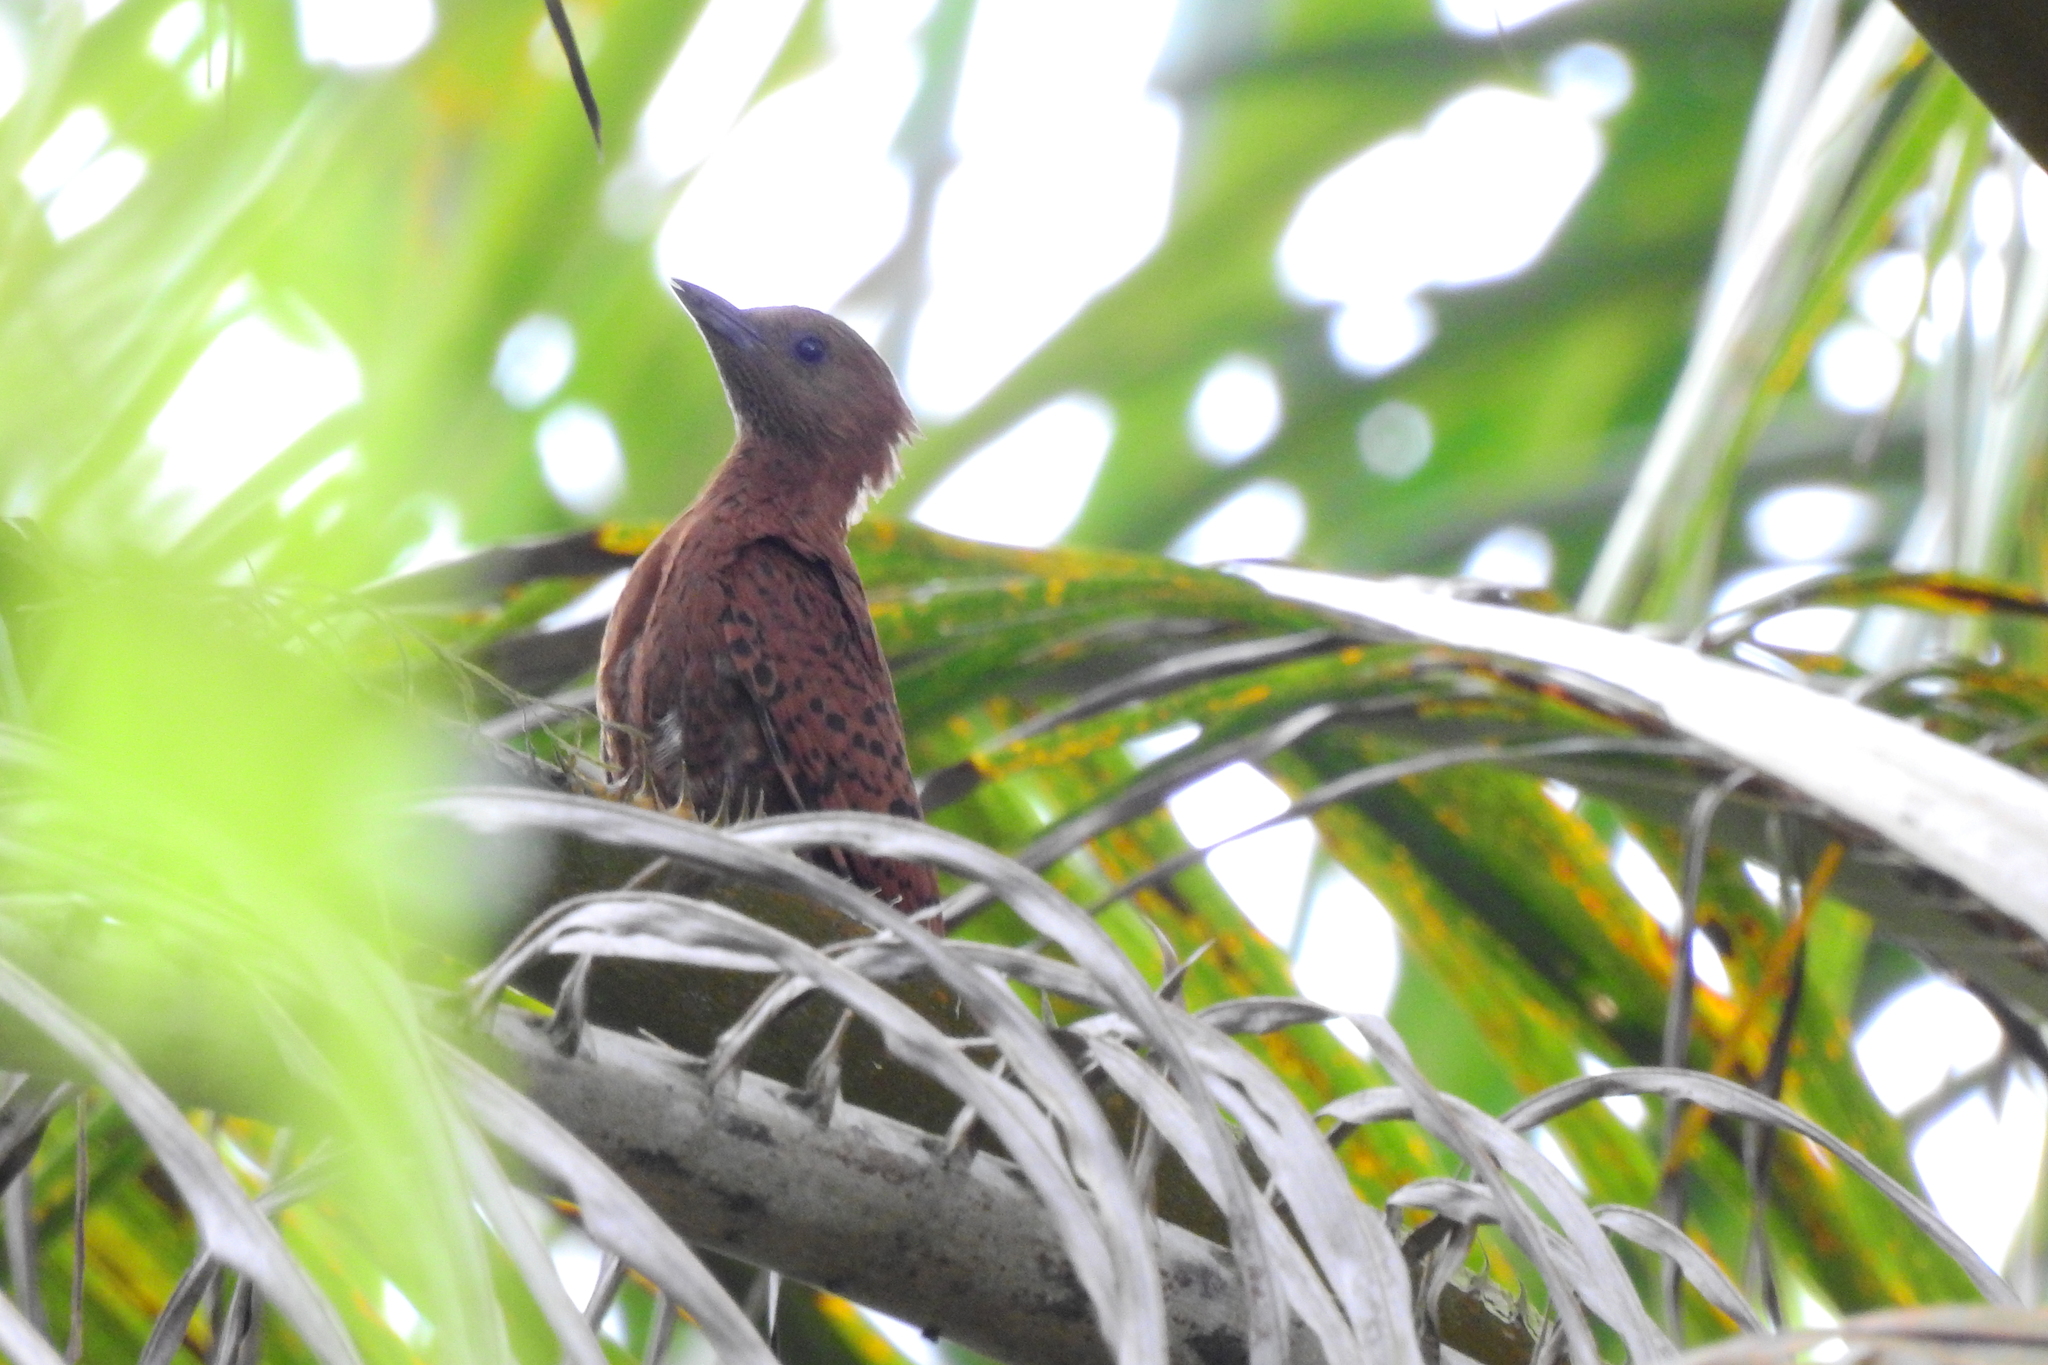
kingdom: Animalia
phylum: Chordata
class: Aves
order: Piciformes
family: Picidae
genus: Micropternus
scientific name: Micropternus brachyurus
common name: Rufous woodpecker
